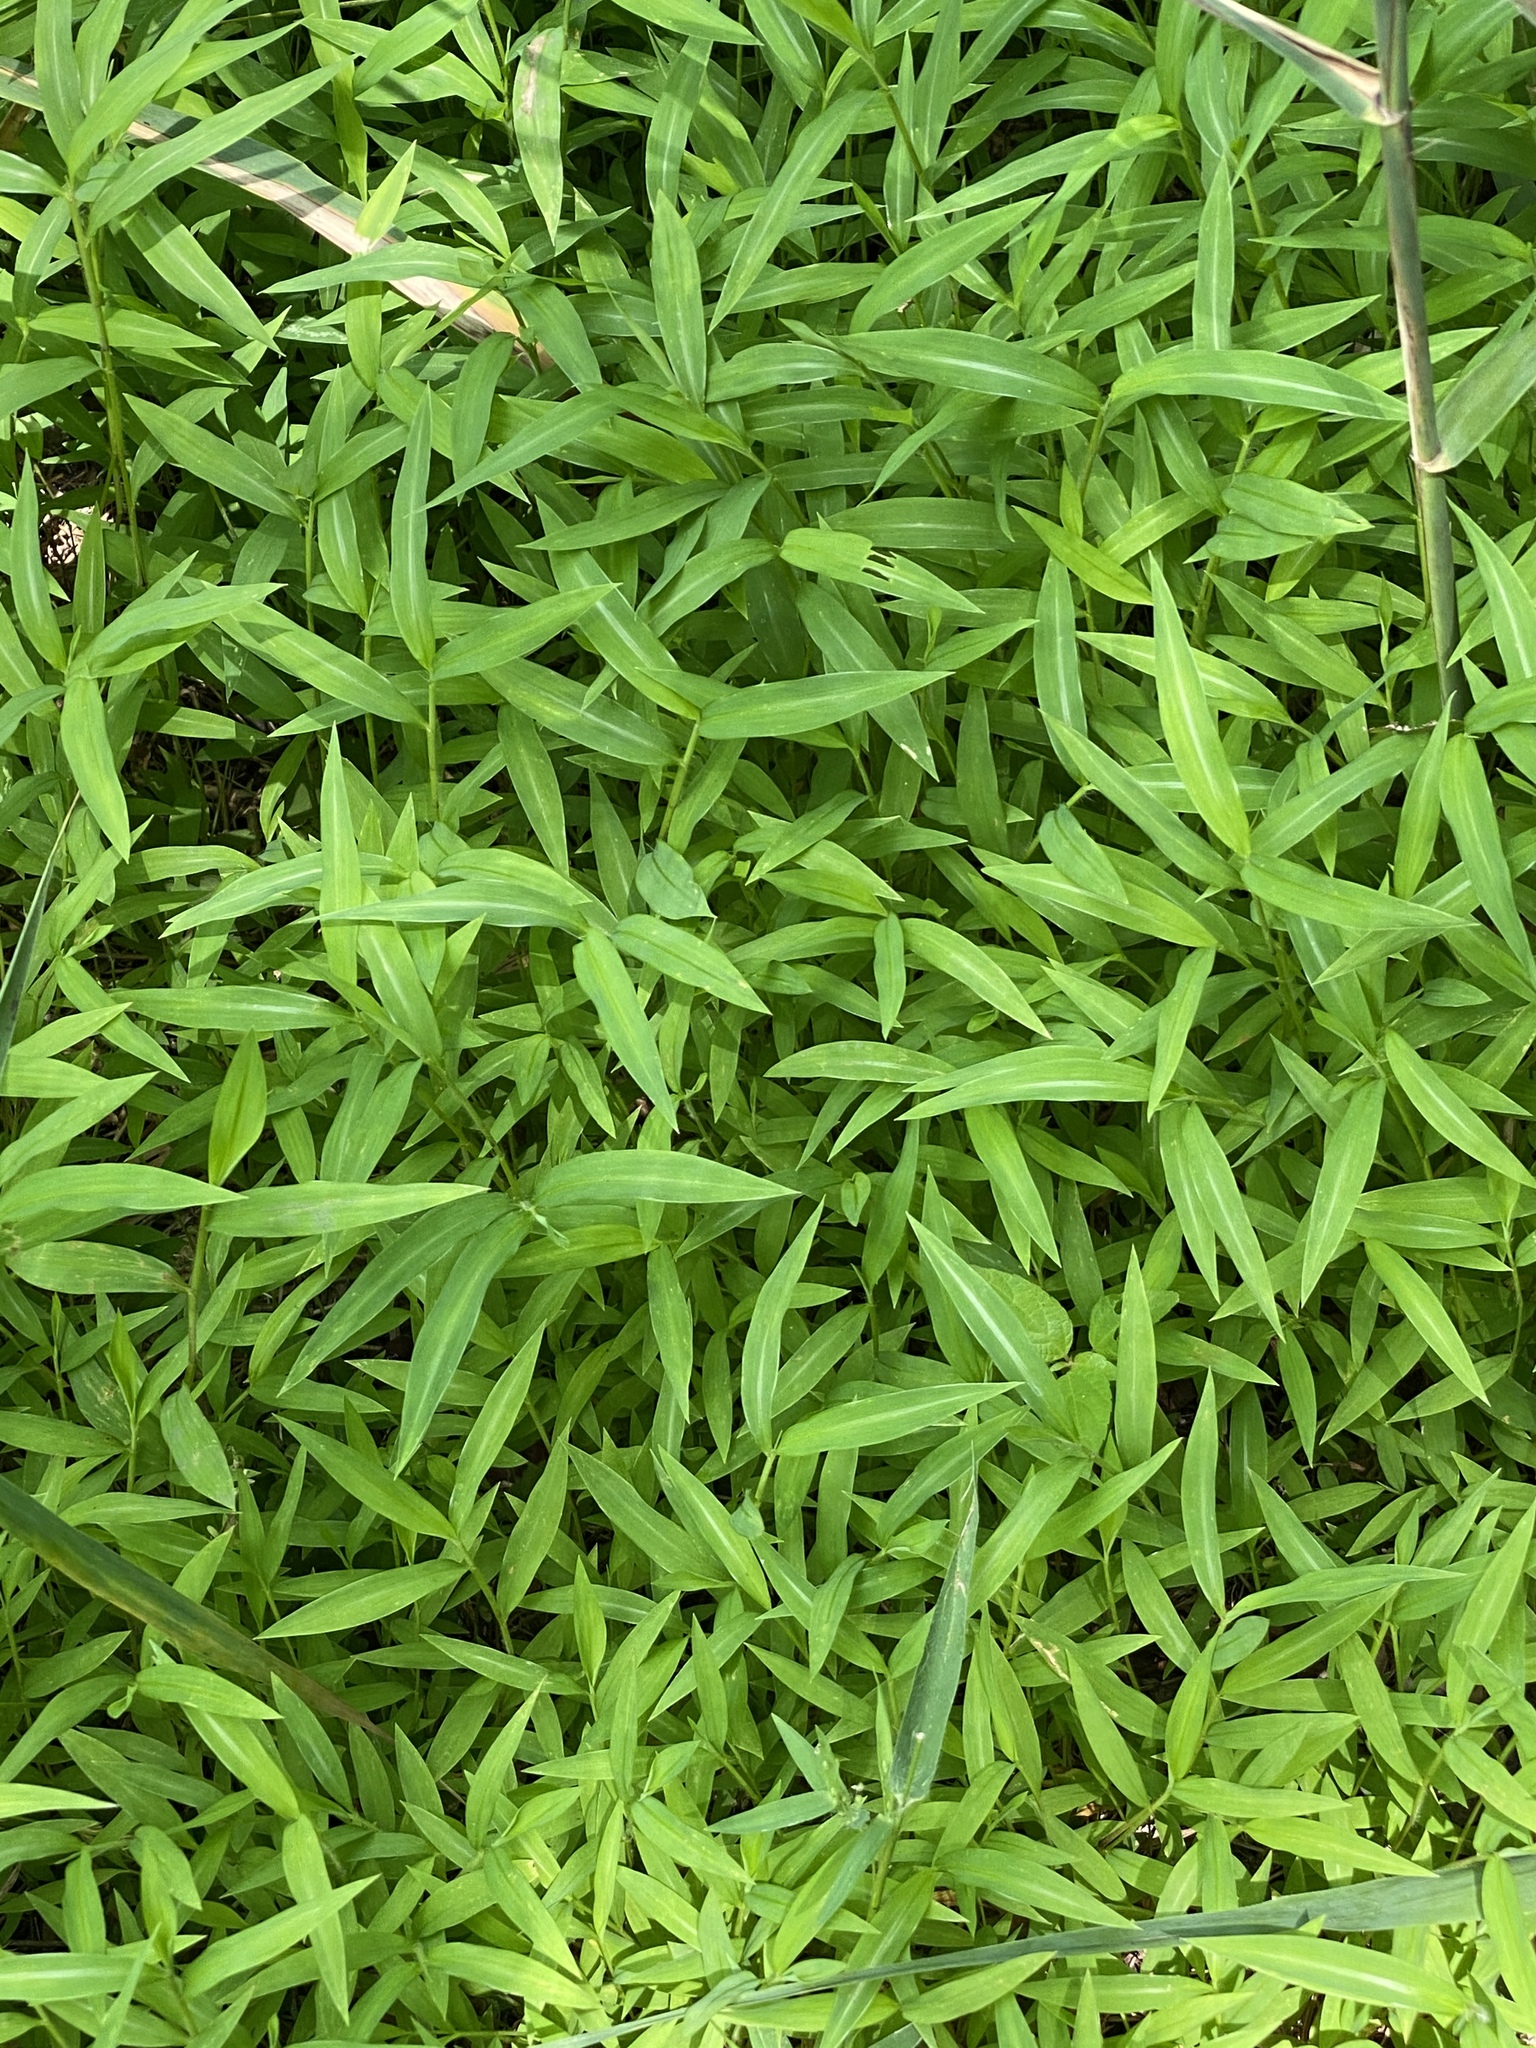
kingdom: Plantae
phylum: Tracheophyta
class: Liliopsida
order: Poales
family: Poaceae
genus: Microstegium
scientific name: Microstegium vimineum
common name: Japanese stiltgrass
